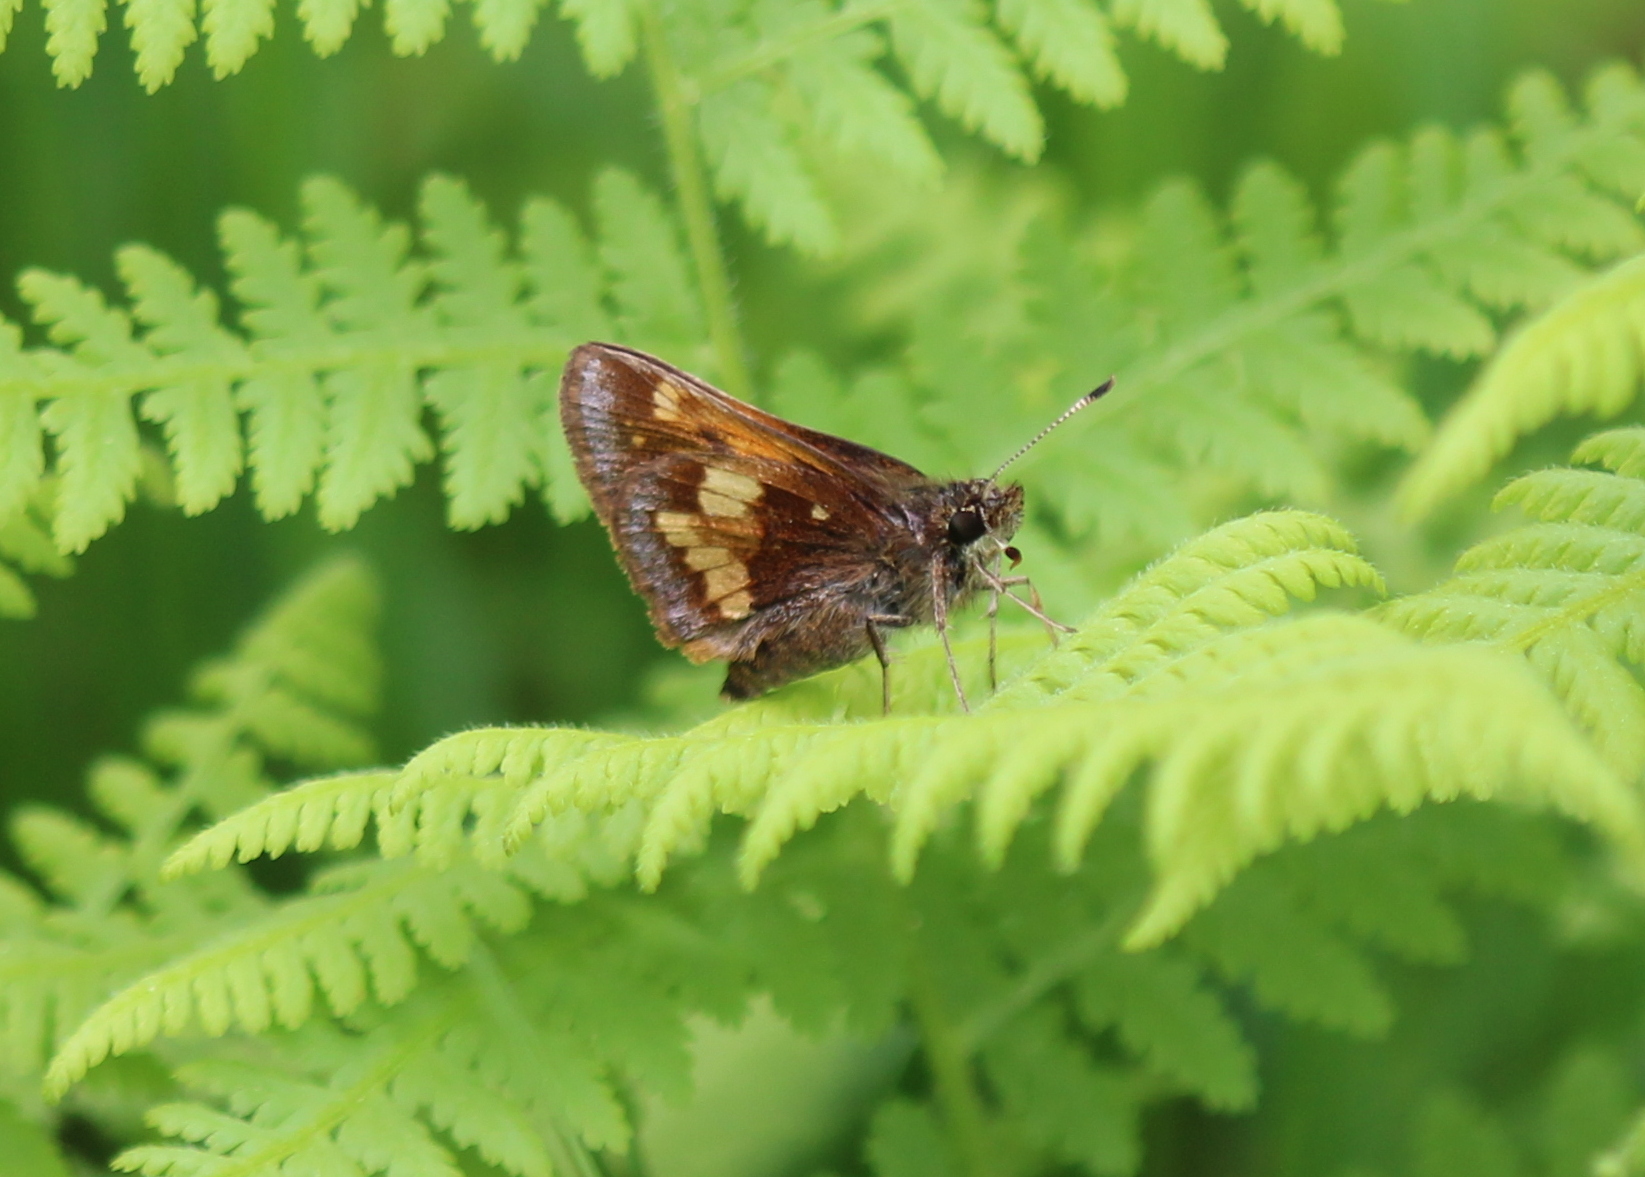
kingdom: Animalia
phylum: Arthropoda
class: Insecta
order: Lepidoptera
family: Hesperiidae
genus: Lon
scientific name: Lon hobomok
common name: Hobomok skipper
